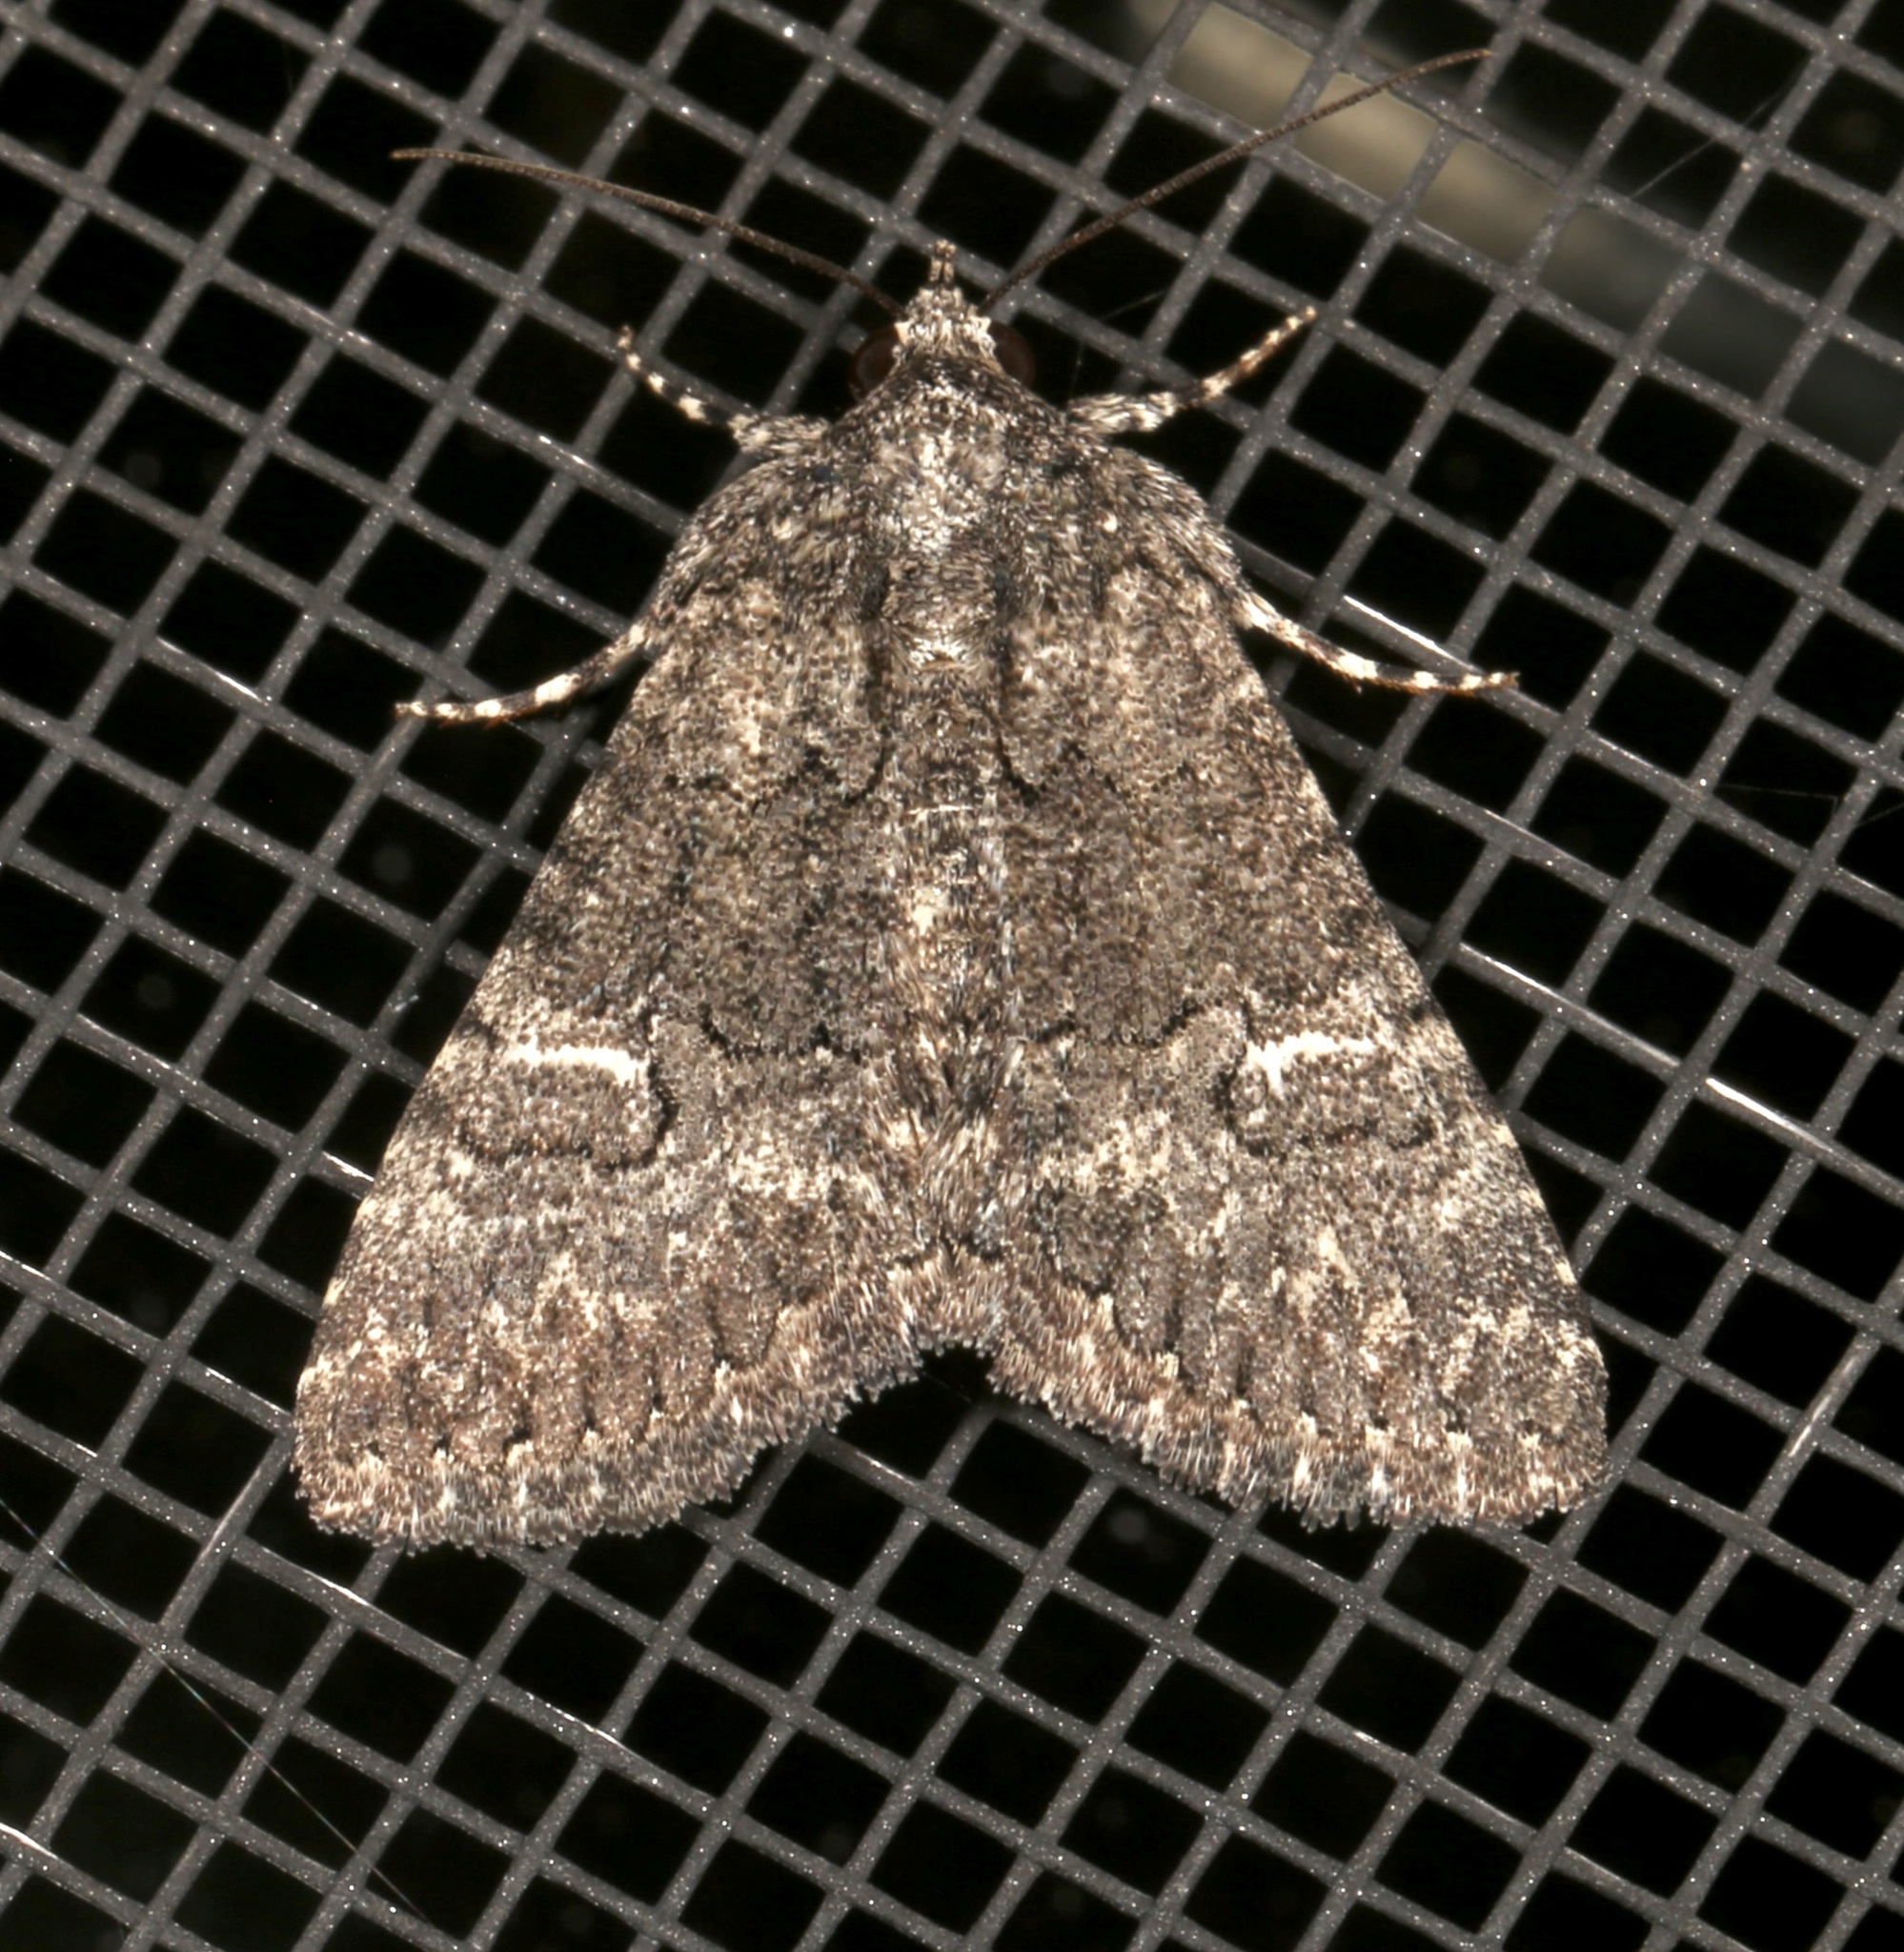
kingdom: Animalia
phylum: Arthropoda
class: Insecta
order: Lepidoptera
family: Erebidae
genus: Elousa
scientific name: Elousa mima
